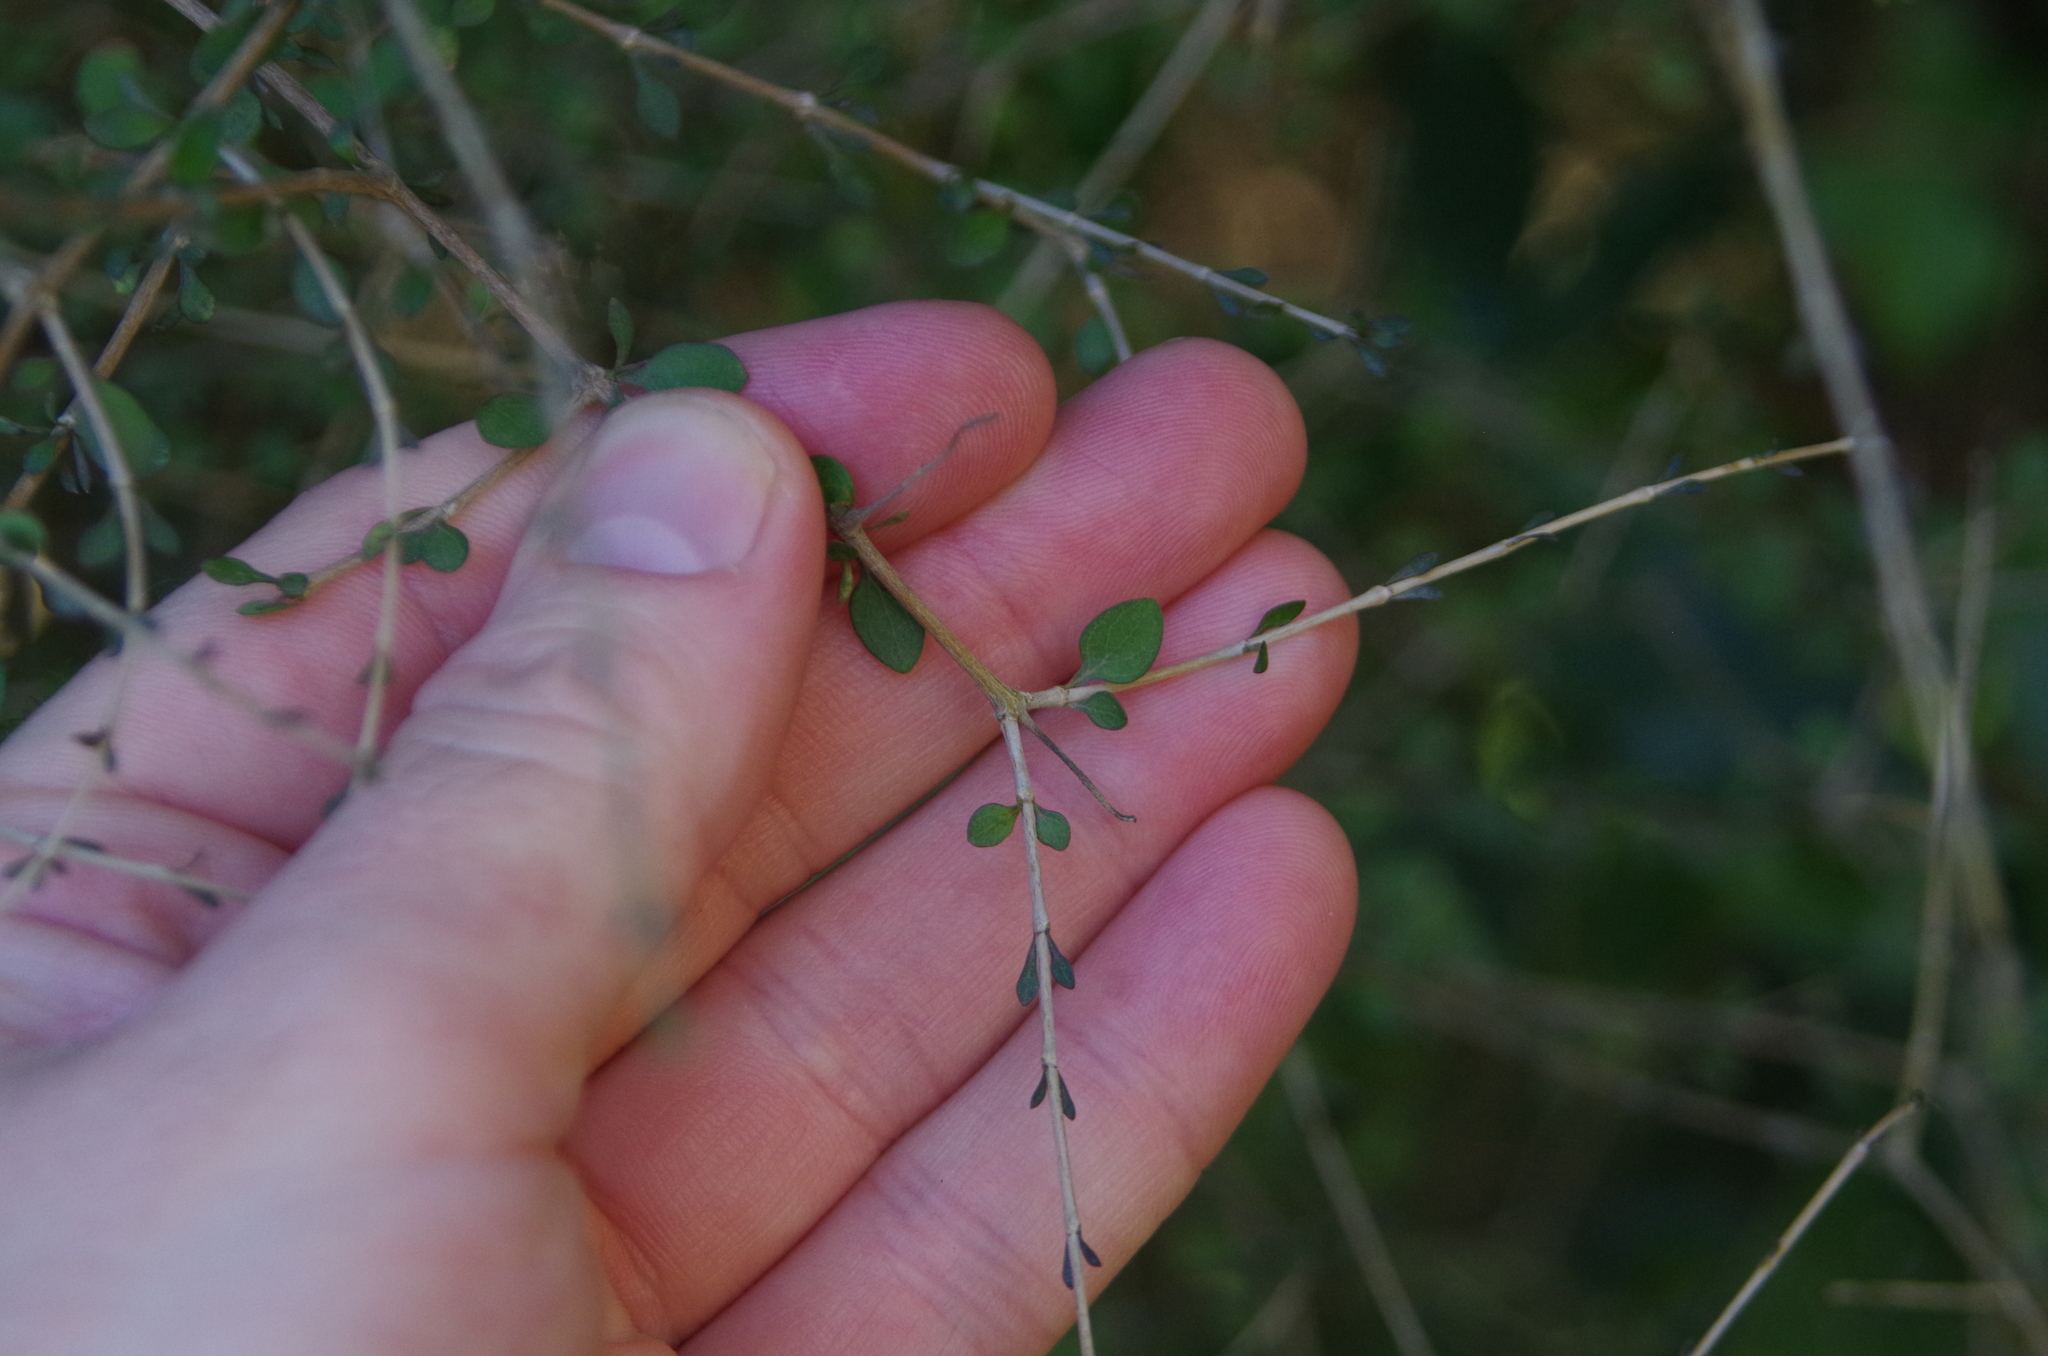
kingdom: Plantae
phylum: Tracheophyta
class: Magnoliopsida
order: Gentianales
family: Rubiaceae
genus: Coprosma
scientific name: Coprosma virescens
